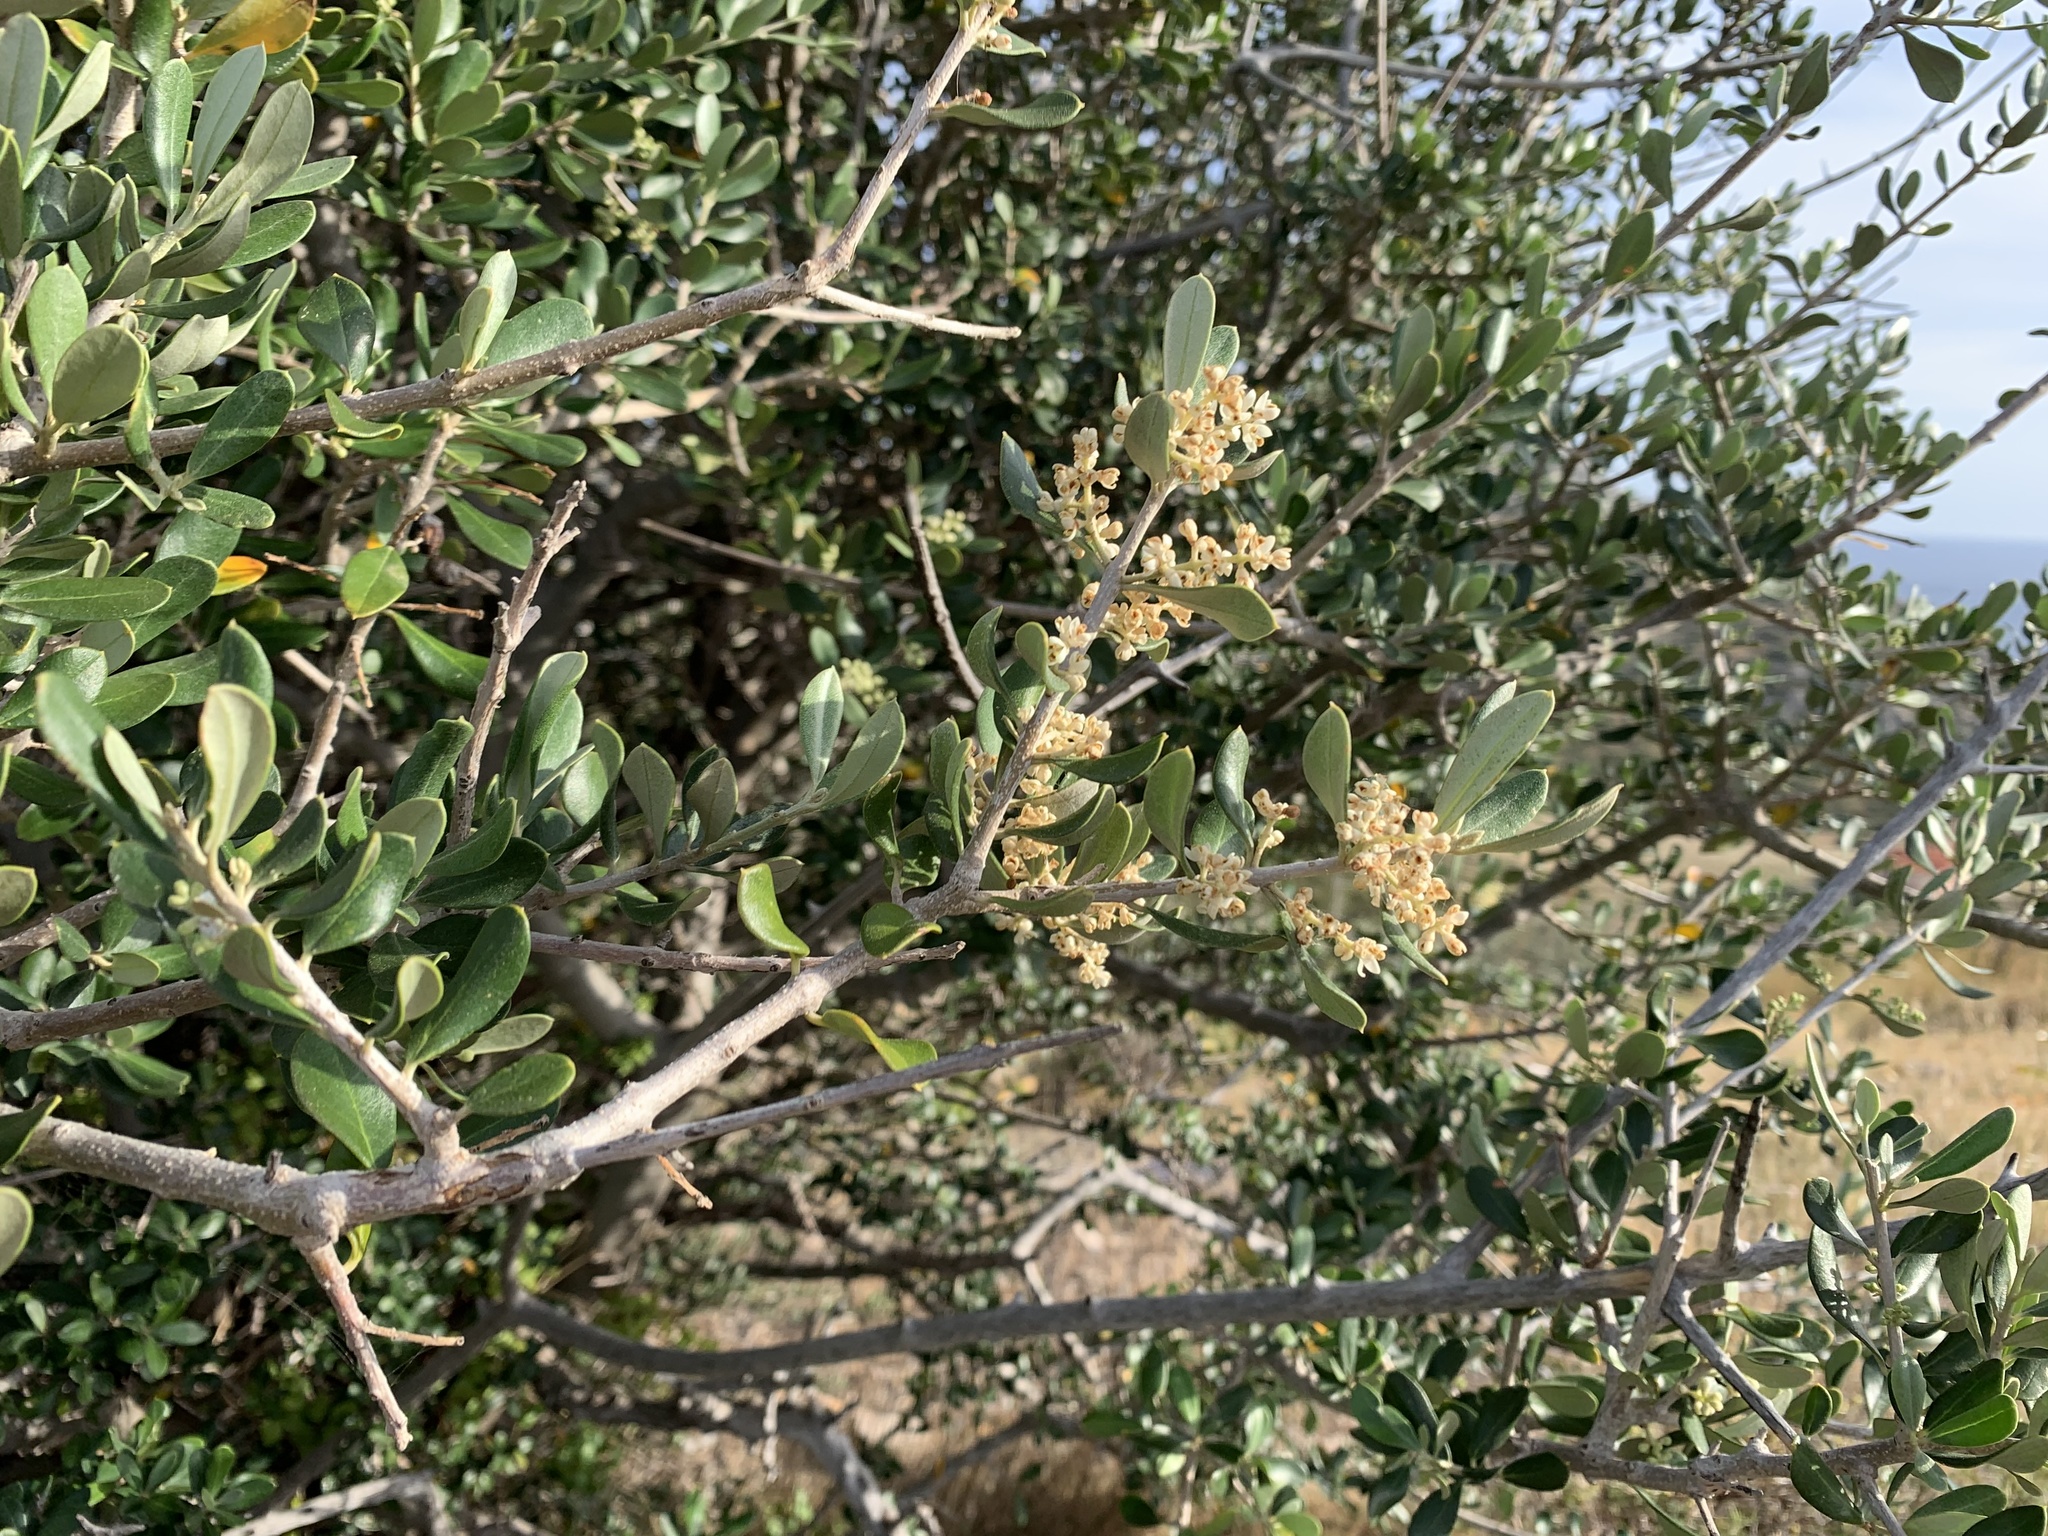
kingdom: Plantae
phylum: Tracheophyta
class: Magnoliopsida
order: Lamiales
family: Oleaceae
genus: Olea
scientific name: Olea europaea
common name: Olive
